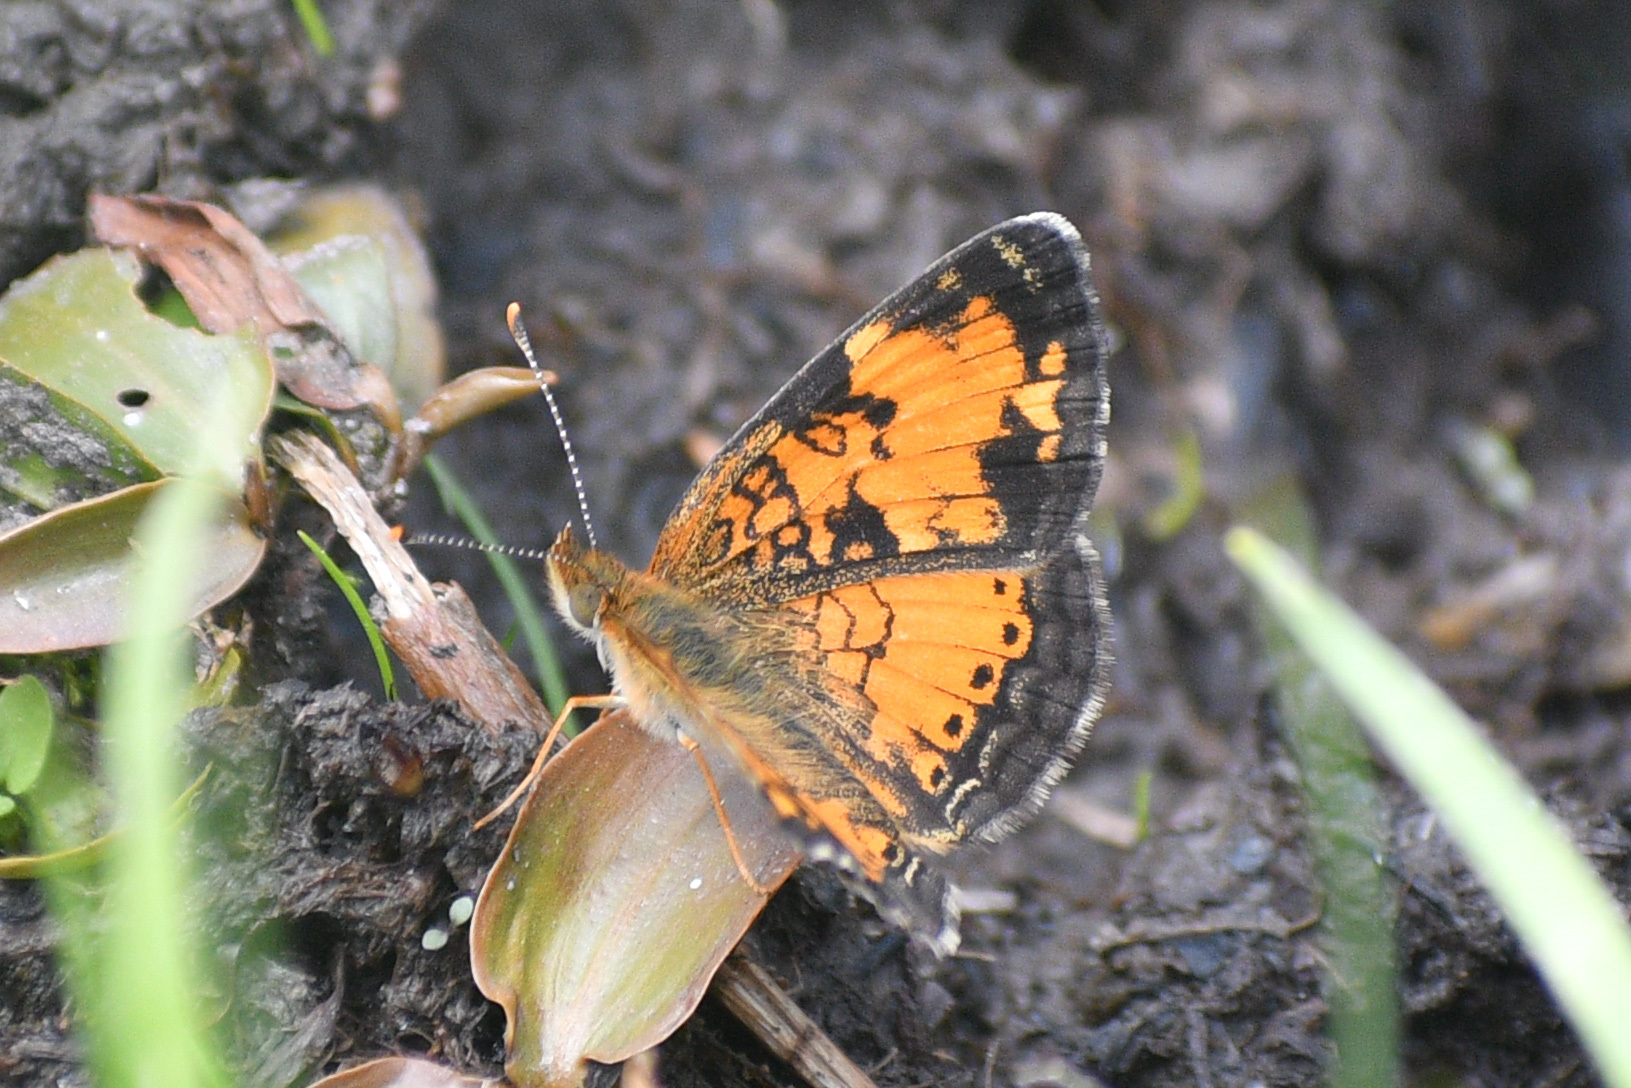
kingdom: Animalia
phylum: Arthropoda
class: Insecta
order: Lepidoptera
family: Nymphalidae
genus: Phyciodes
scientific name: Phyciodes tharos
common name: Pearl crescent
